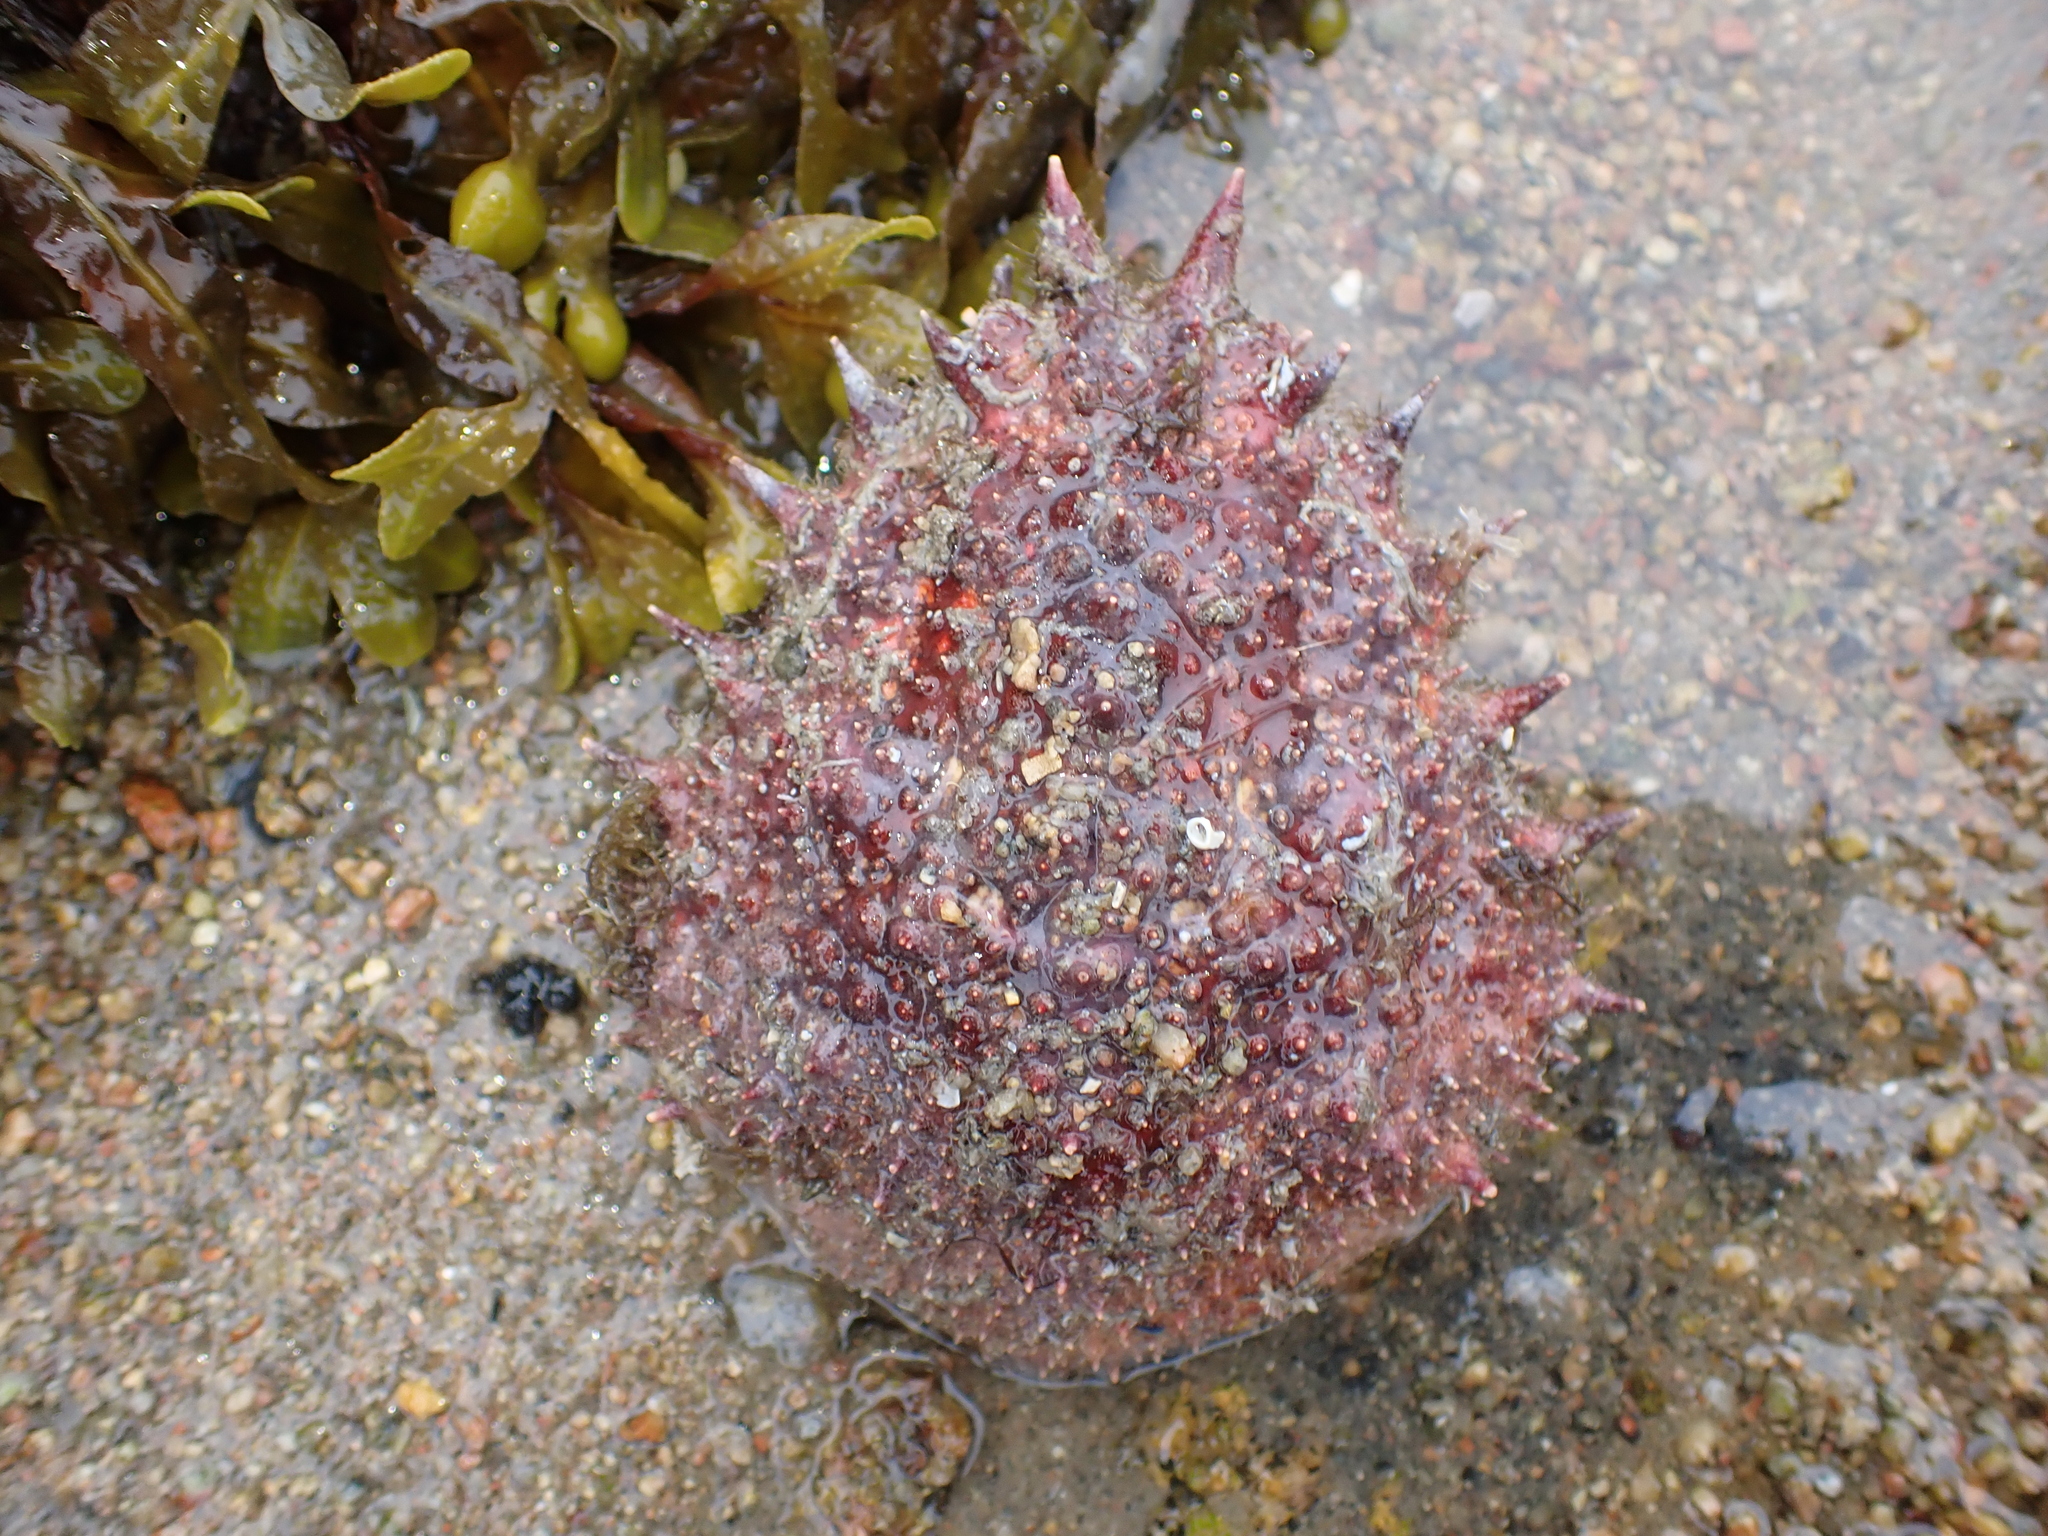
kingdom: Animalia
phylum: Arthropoda
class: Malacostraca
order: Decapoda
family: Majidae
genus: Maja
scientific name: Maja brachydactyla
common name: Common spider crab
